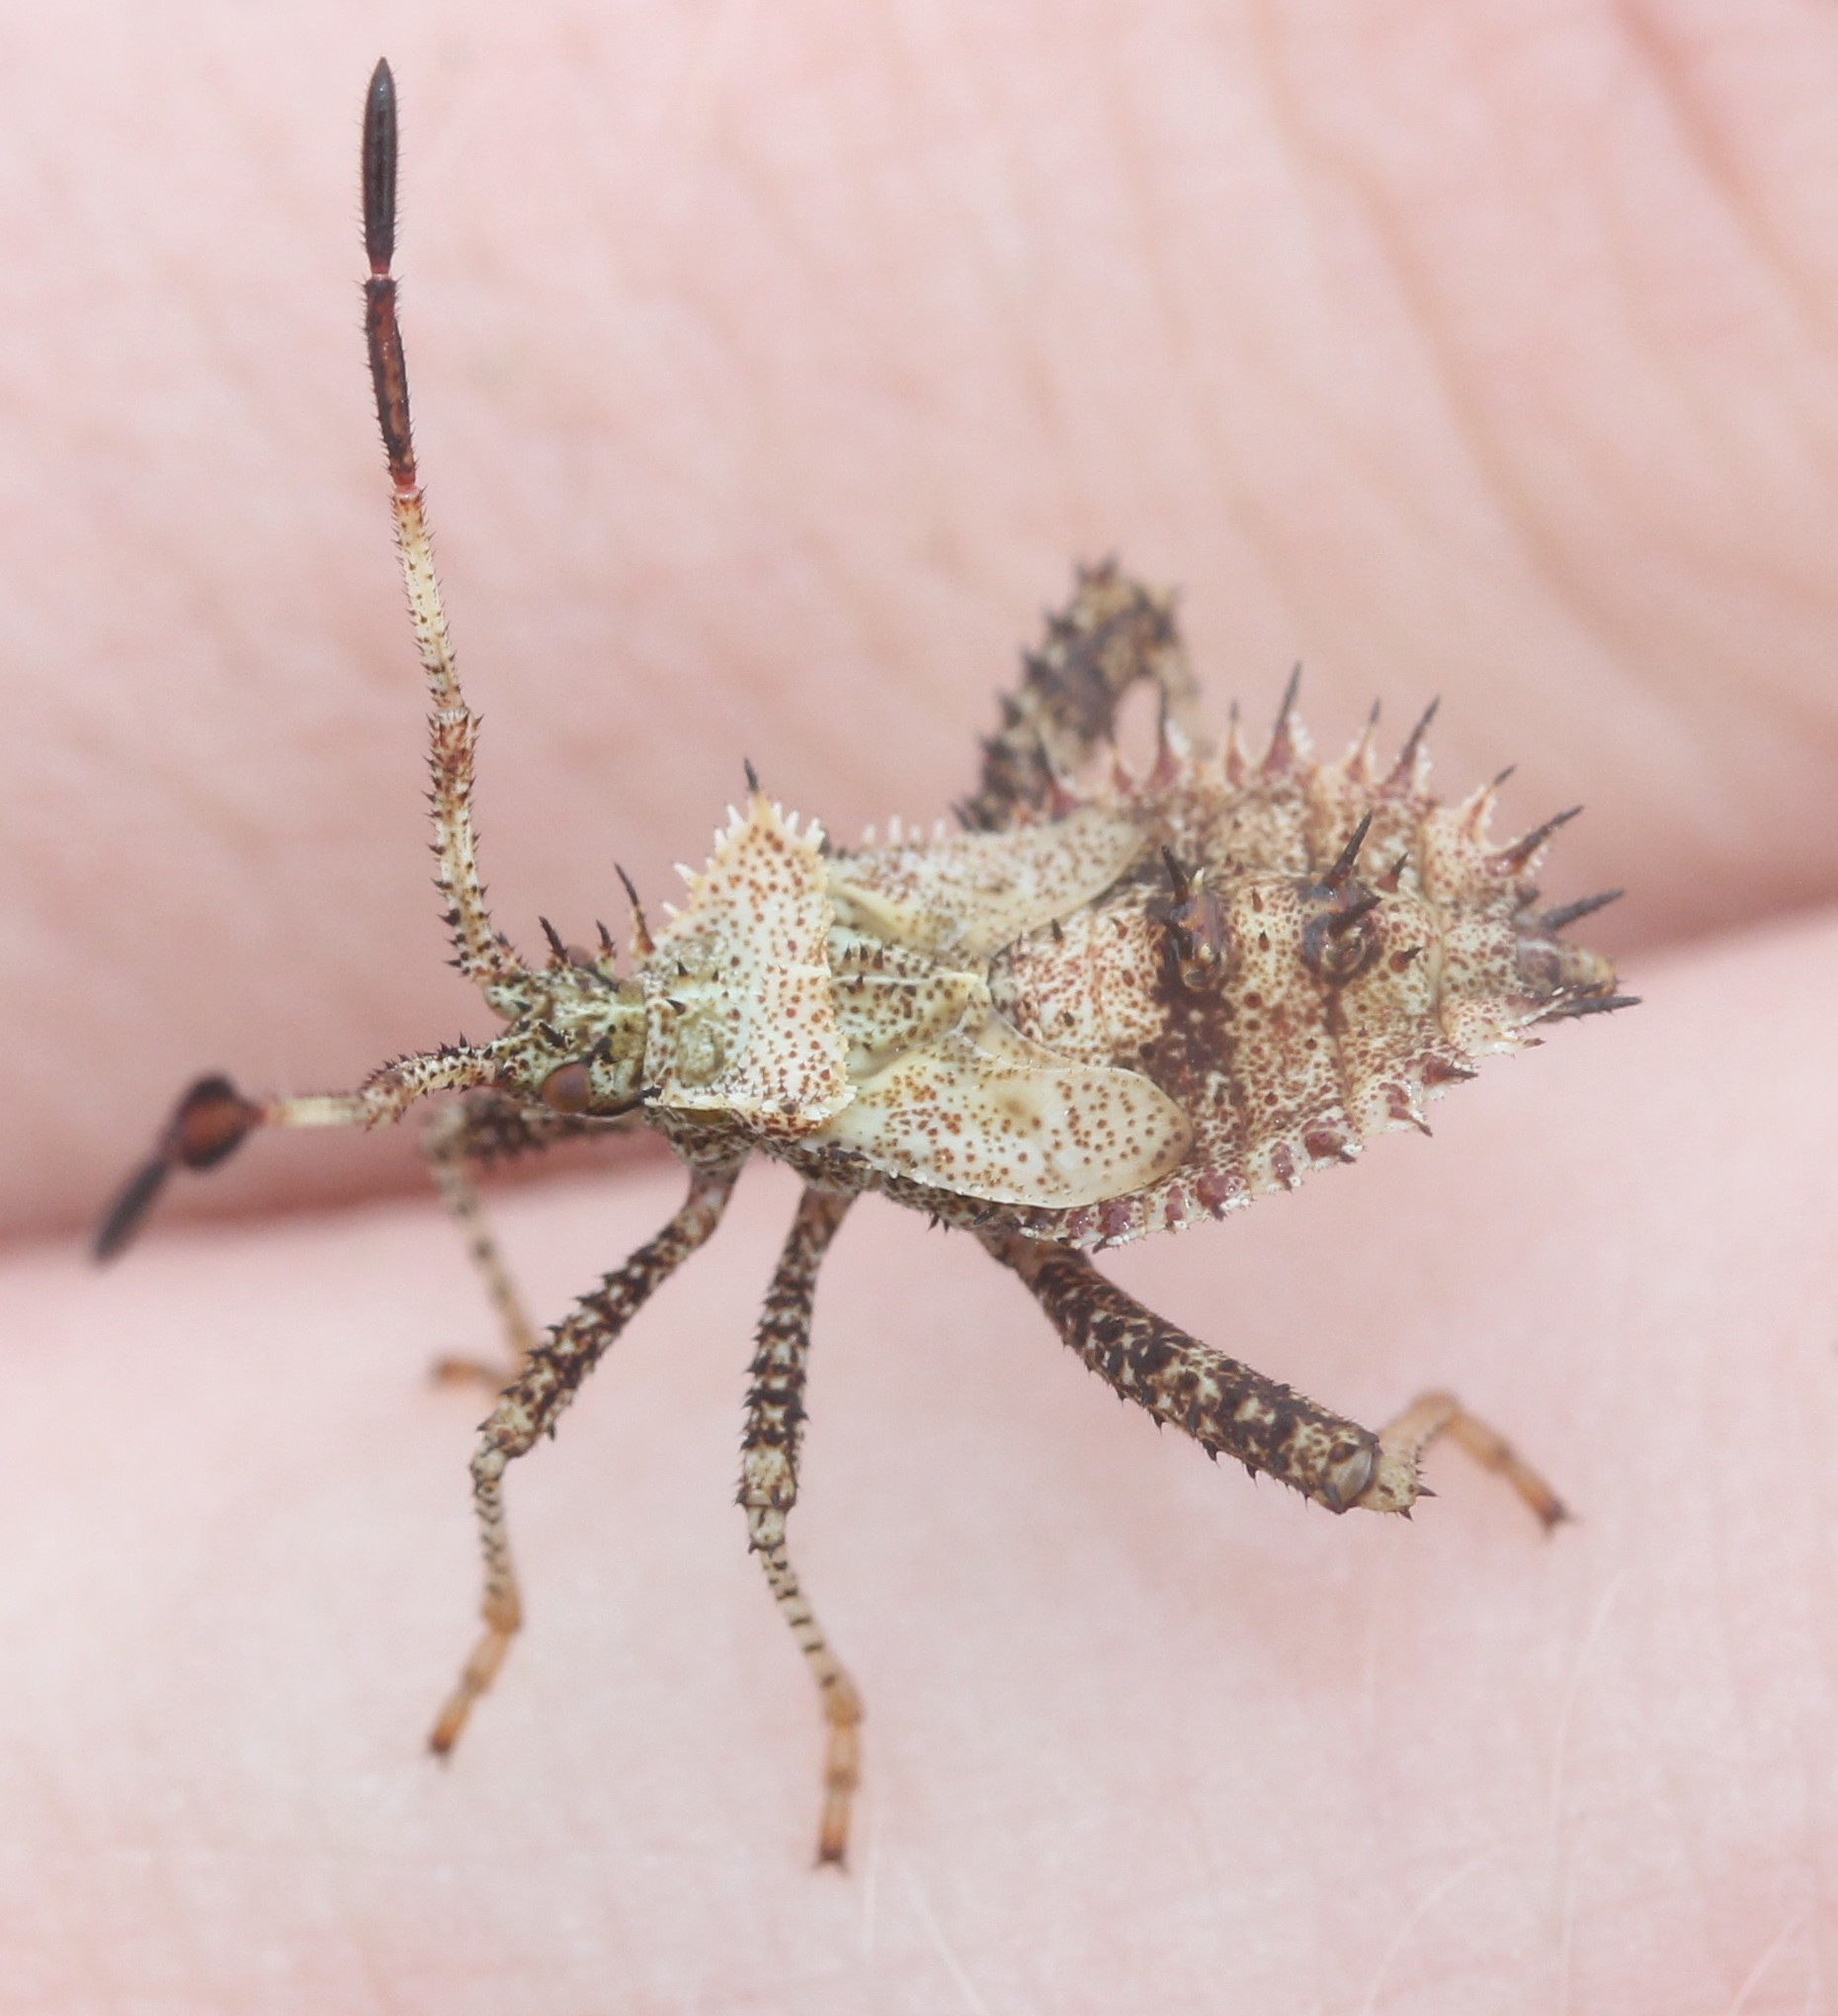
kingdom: Animalia
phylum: Arthropoda
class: Insecta
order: Hemiptera
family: Coreidae
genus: Euthochtha
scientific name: Euthochtha galeator
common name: Helmeted squash bug
